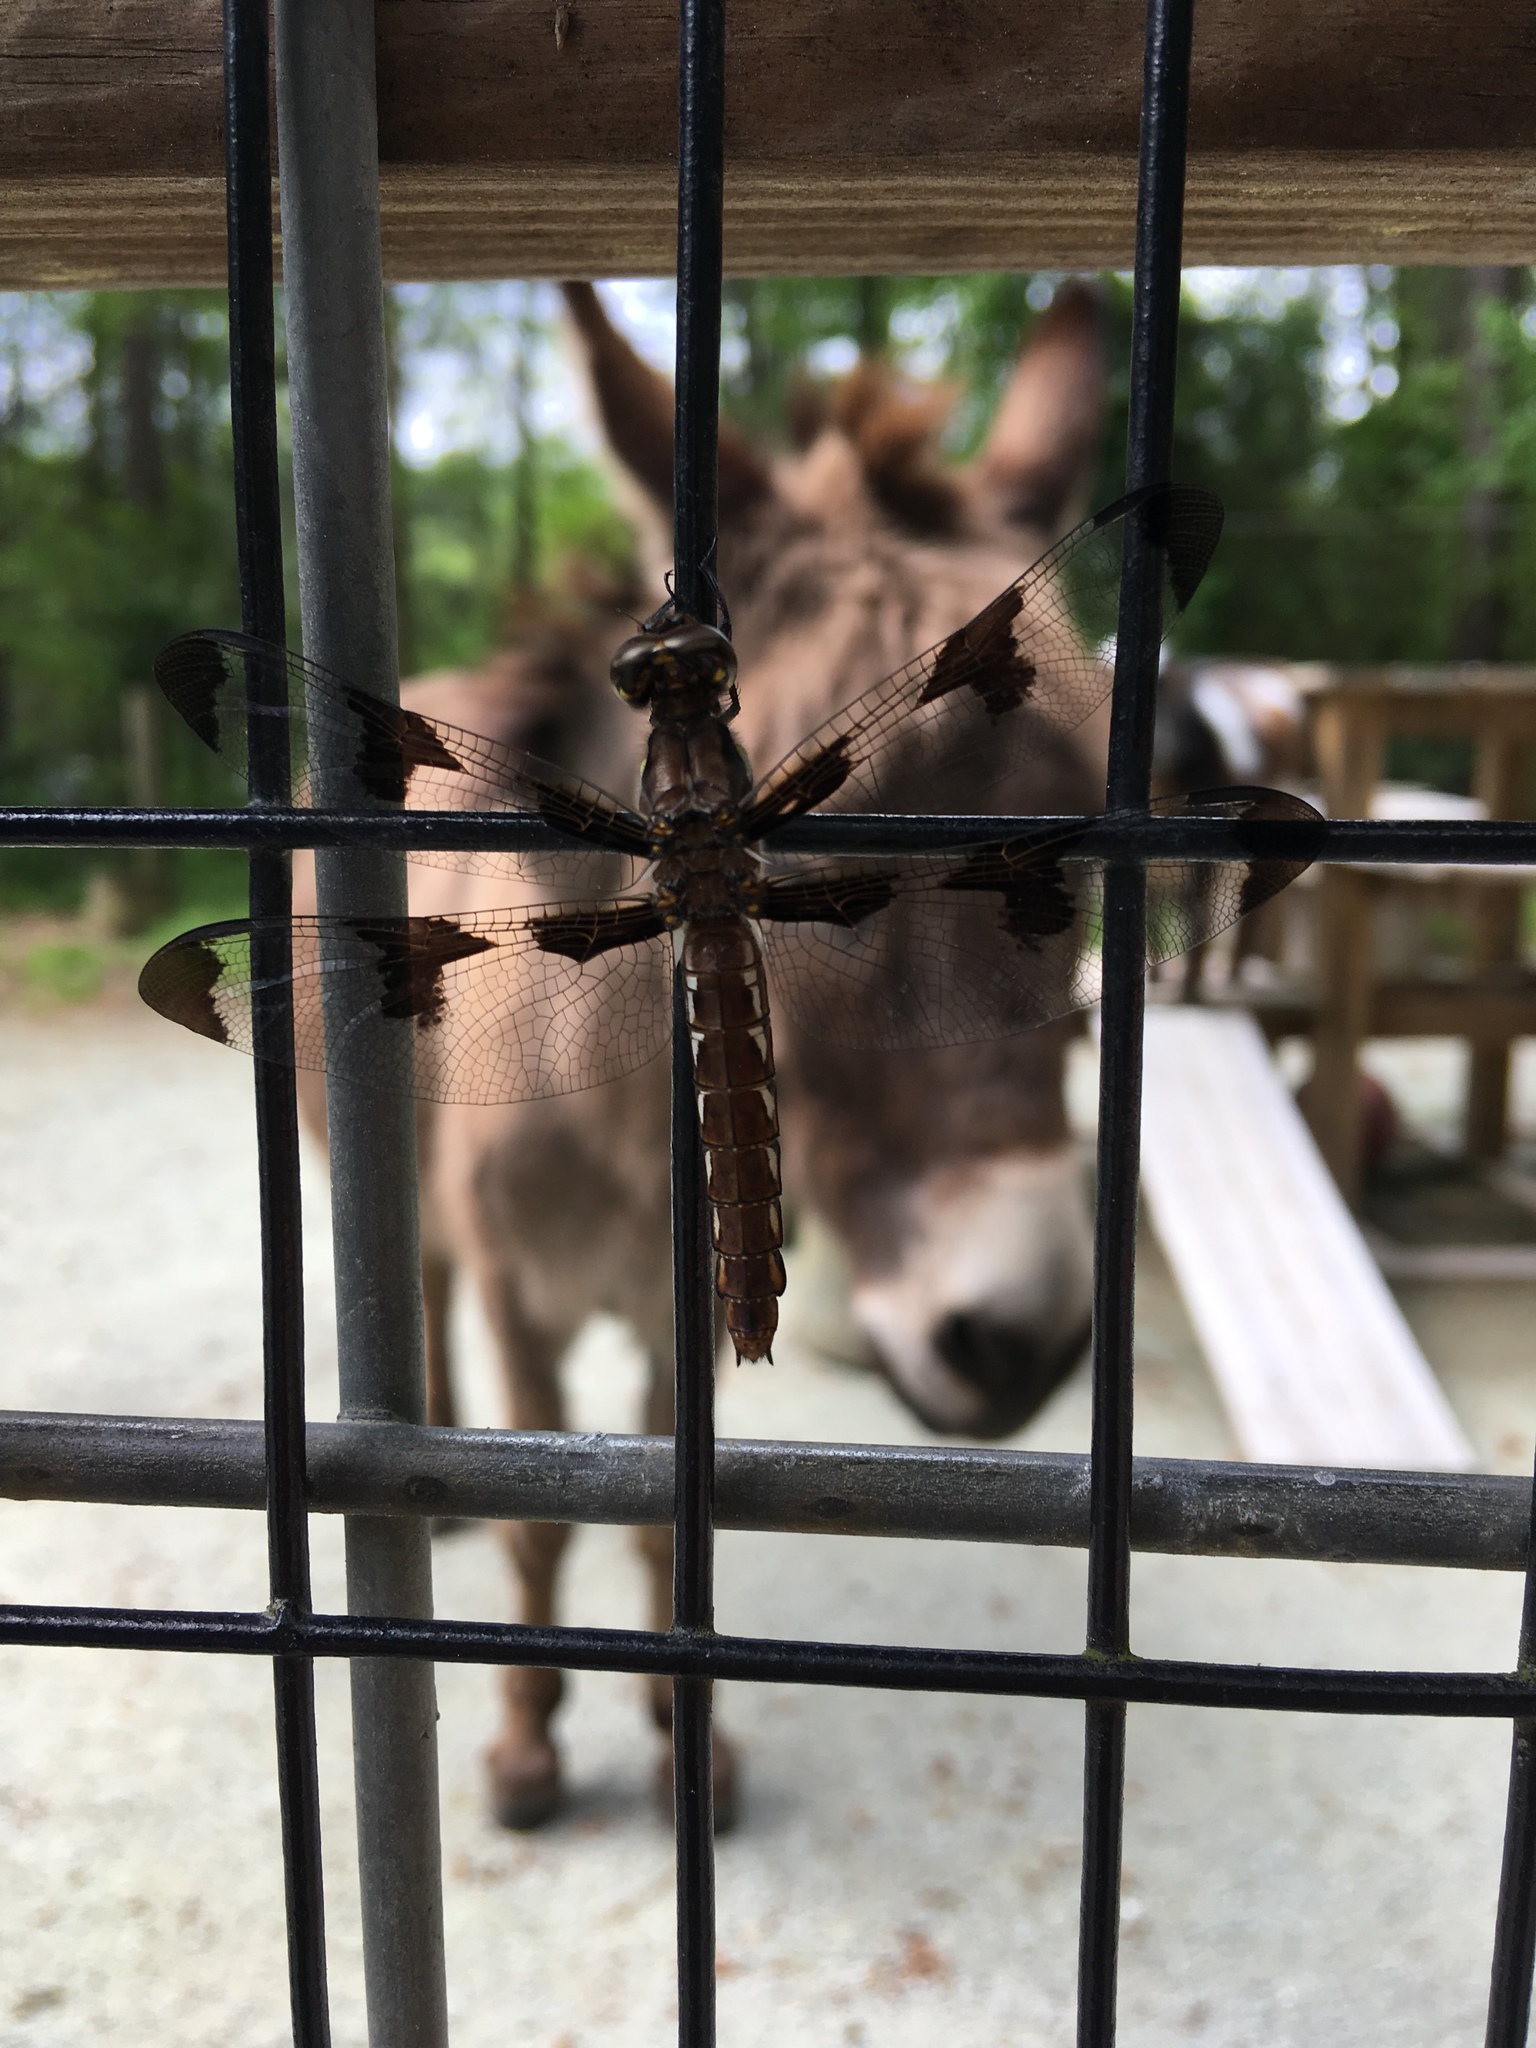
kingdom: Animalia
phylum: Arthropoda
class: Insecta
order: Odonata
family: Libellulidae
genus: Plathemis
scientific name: Plathemis lydia
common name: Common whitetail
